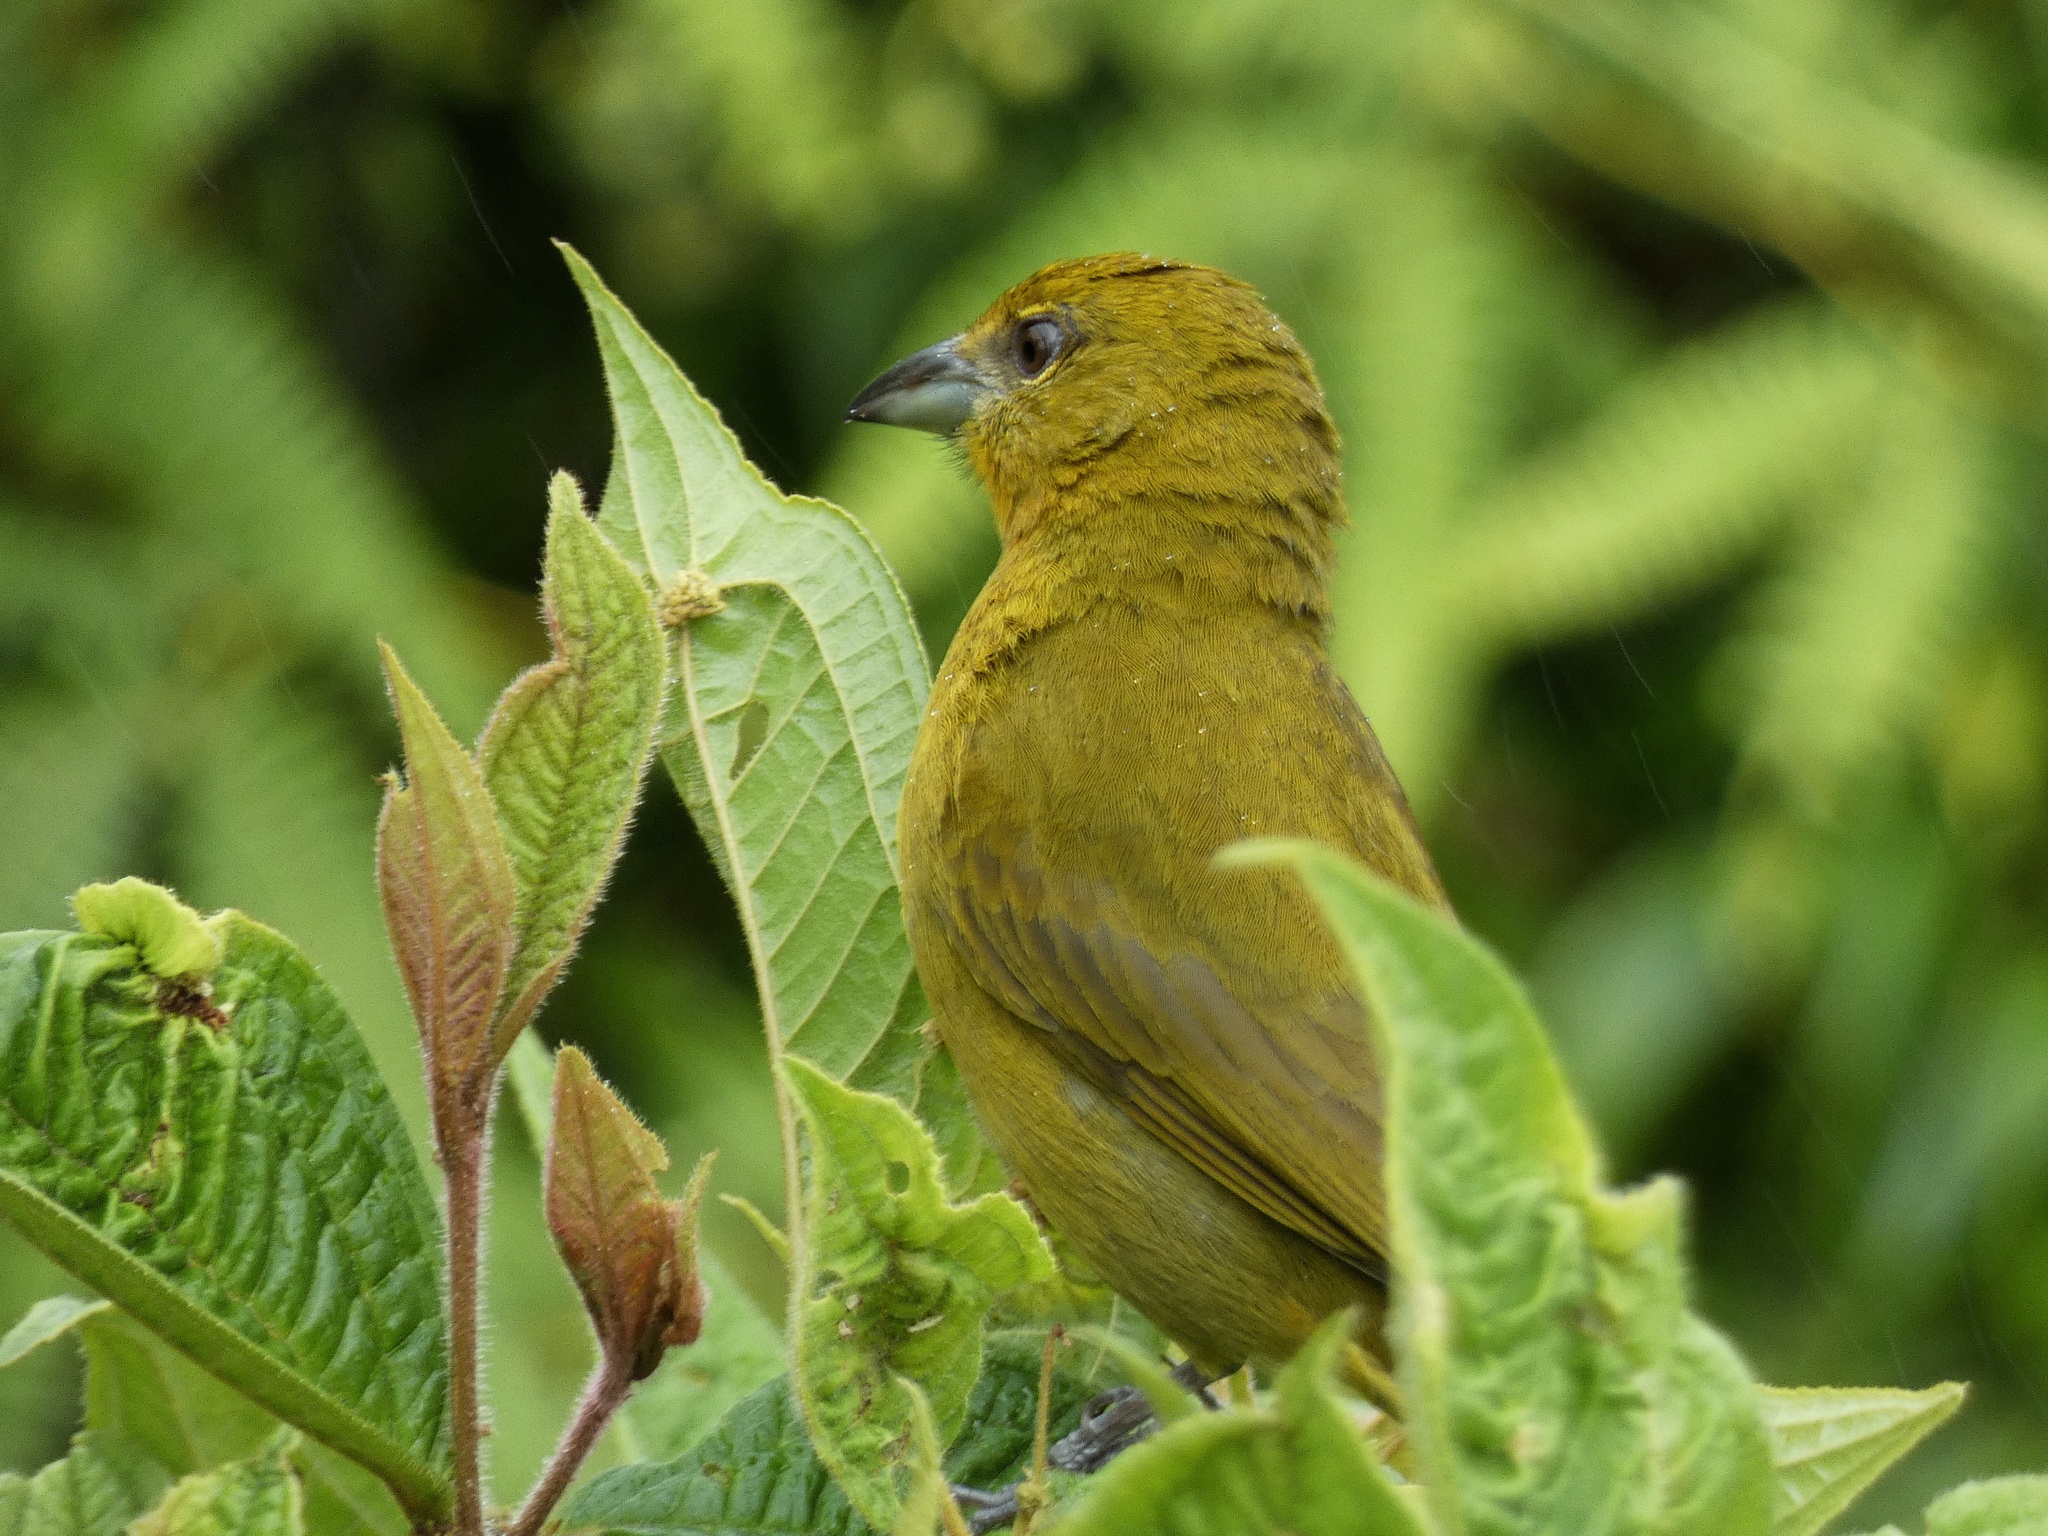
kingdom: Animalia
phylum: Chordata
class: Aves
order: Passeriformes
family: Cardinalidae
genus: Piranga
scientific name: Piranga flava
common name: Red tanager
